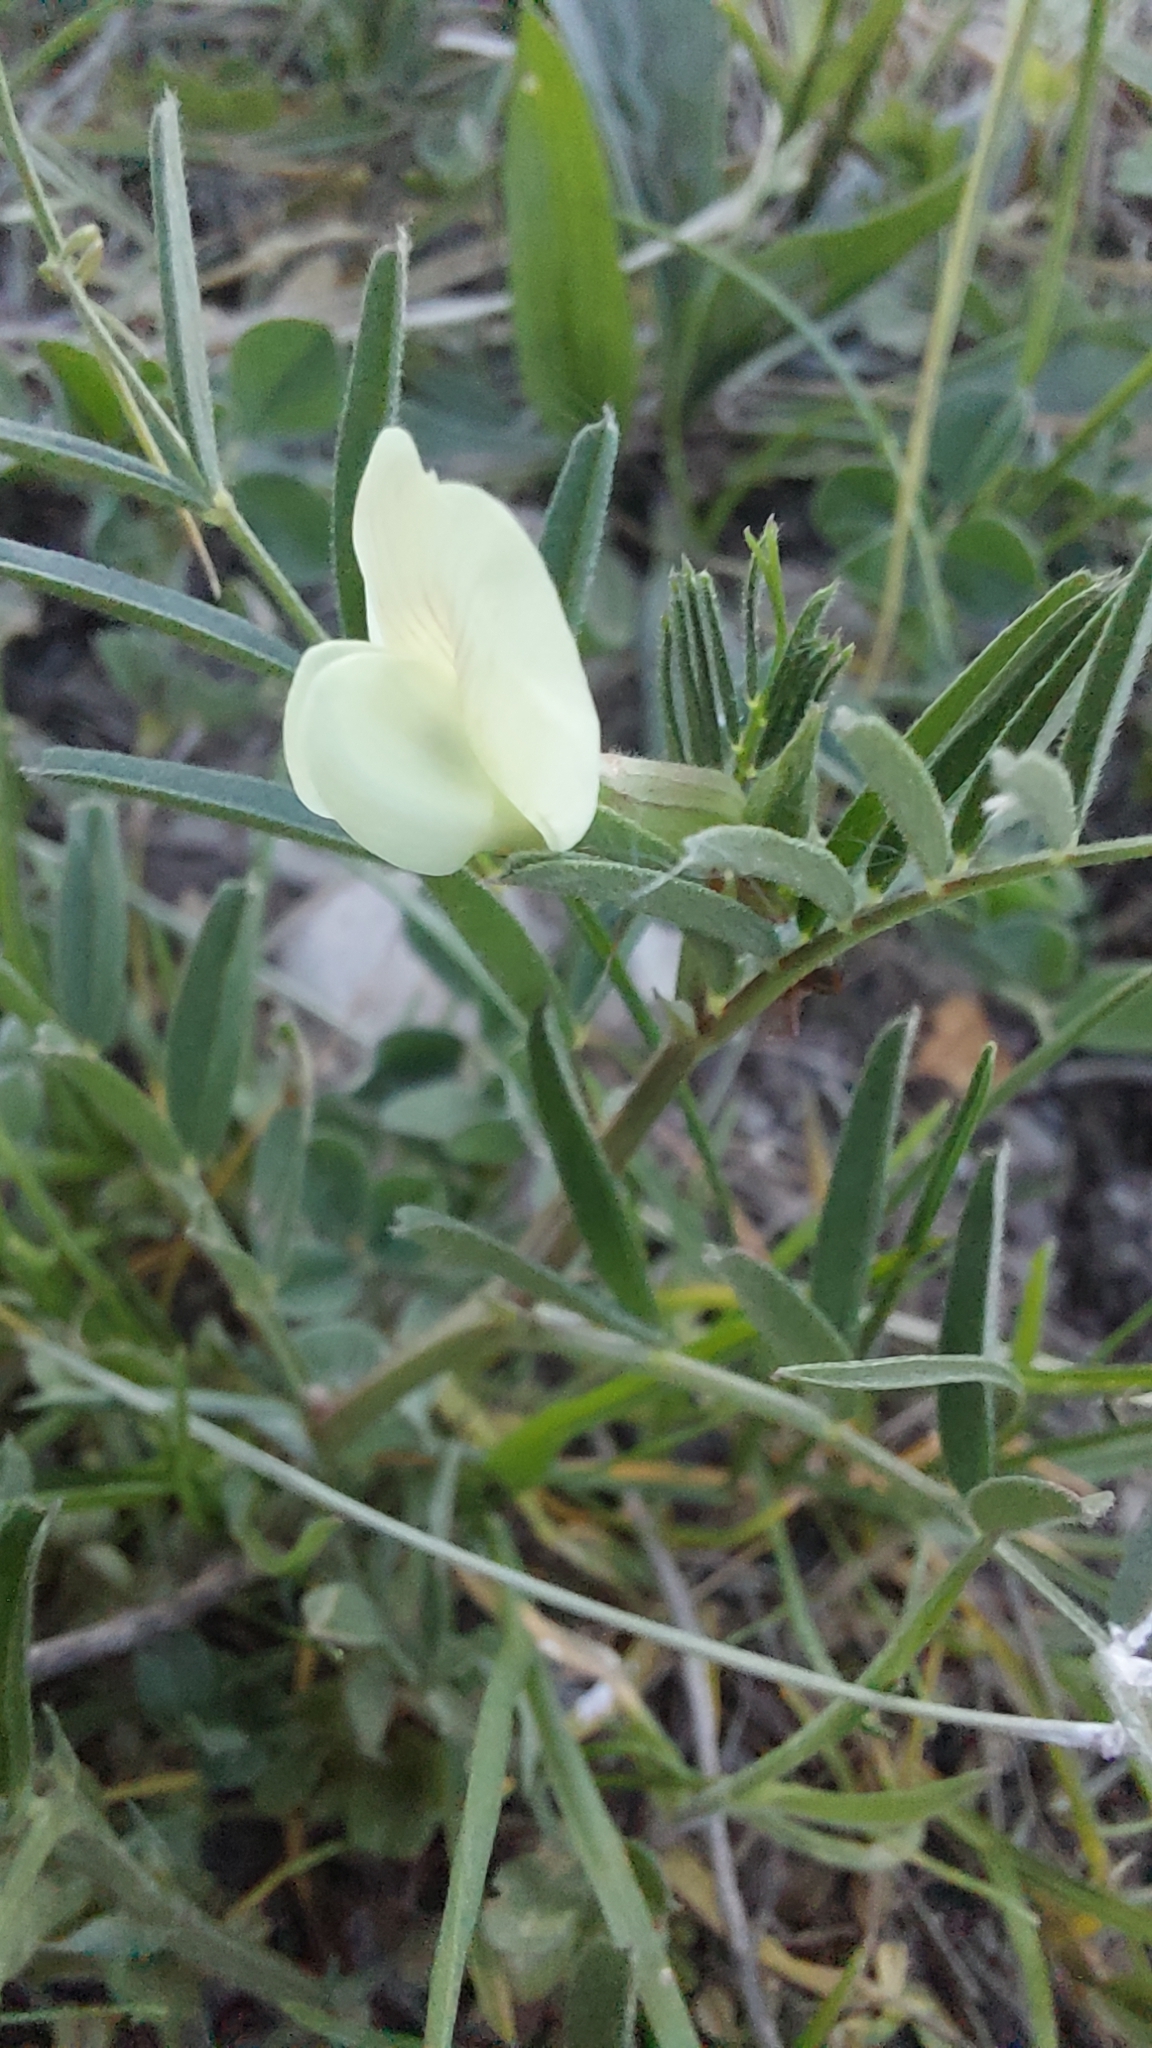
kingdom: Plantae
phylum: Tracheophyta
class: Magnoliopsida
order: Fabales
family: Fabaceae
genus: Vicia
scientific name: Vicia grandiflora
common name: Large yellow vetch
